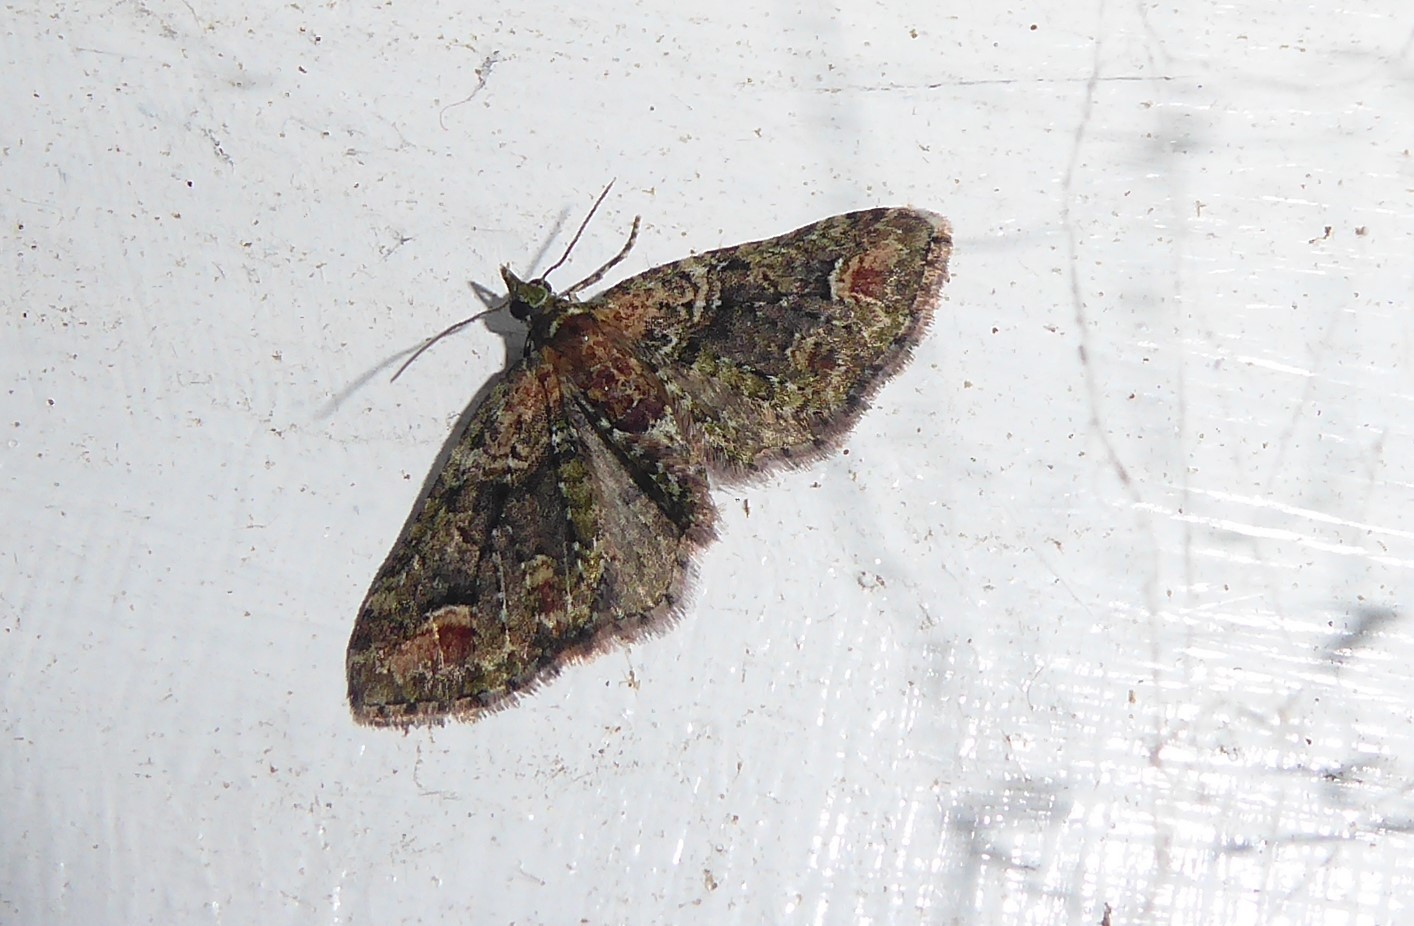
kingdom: Animalia
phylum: Arthropoda
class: Insecta
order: Lepidoptera
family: Geometridae
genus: Idaea
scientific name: Idaea mutanda
